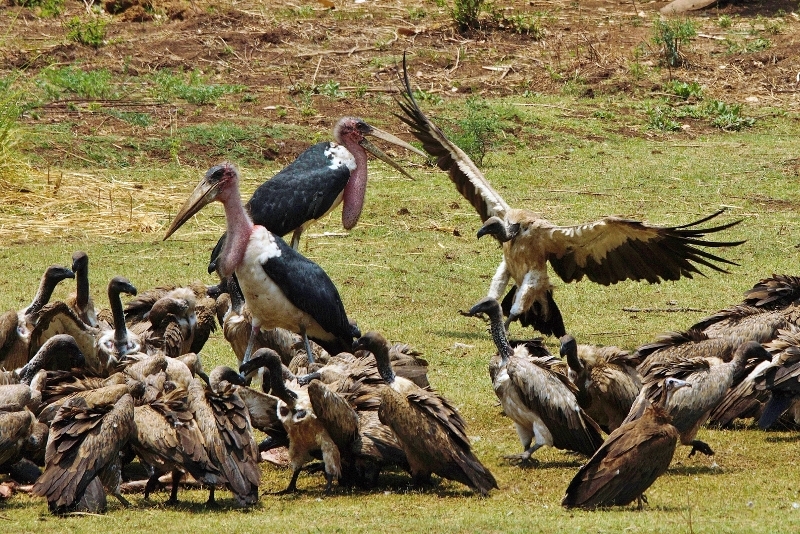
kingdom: Animalia
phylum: Chordata
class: Aves
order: Accipitriformes
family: Accipitridae
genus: Gyps
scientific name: Gyps africanus
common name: White-backed vulture
